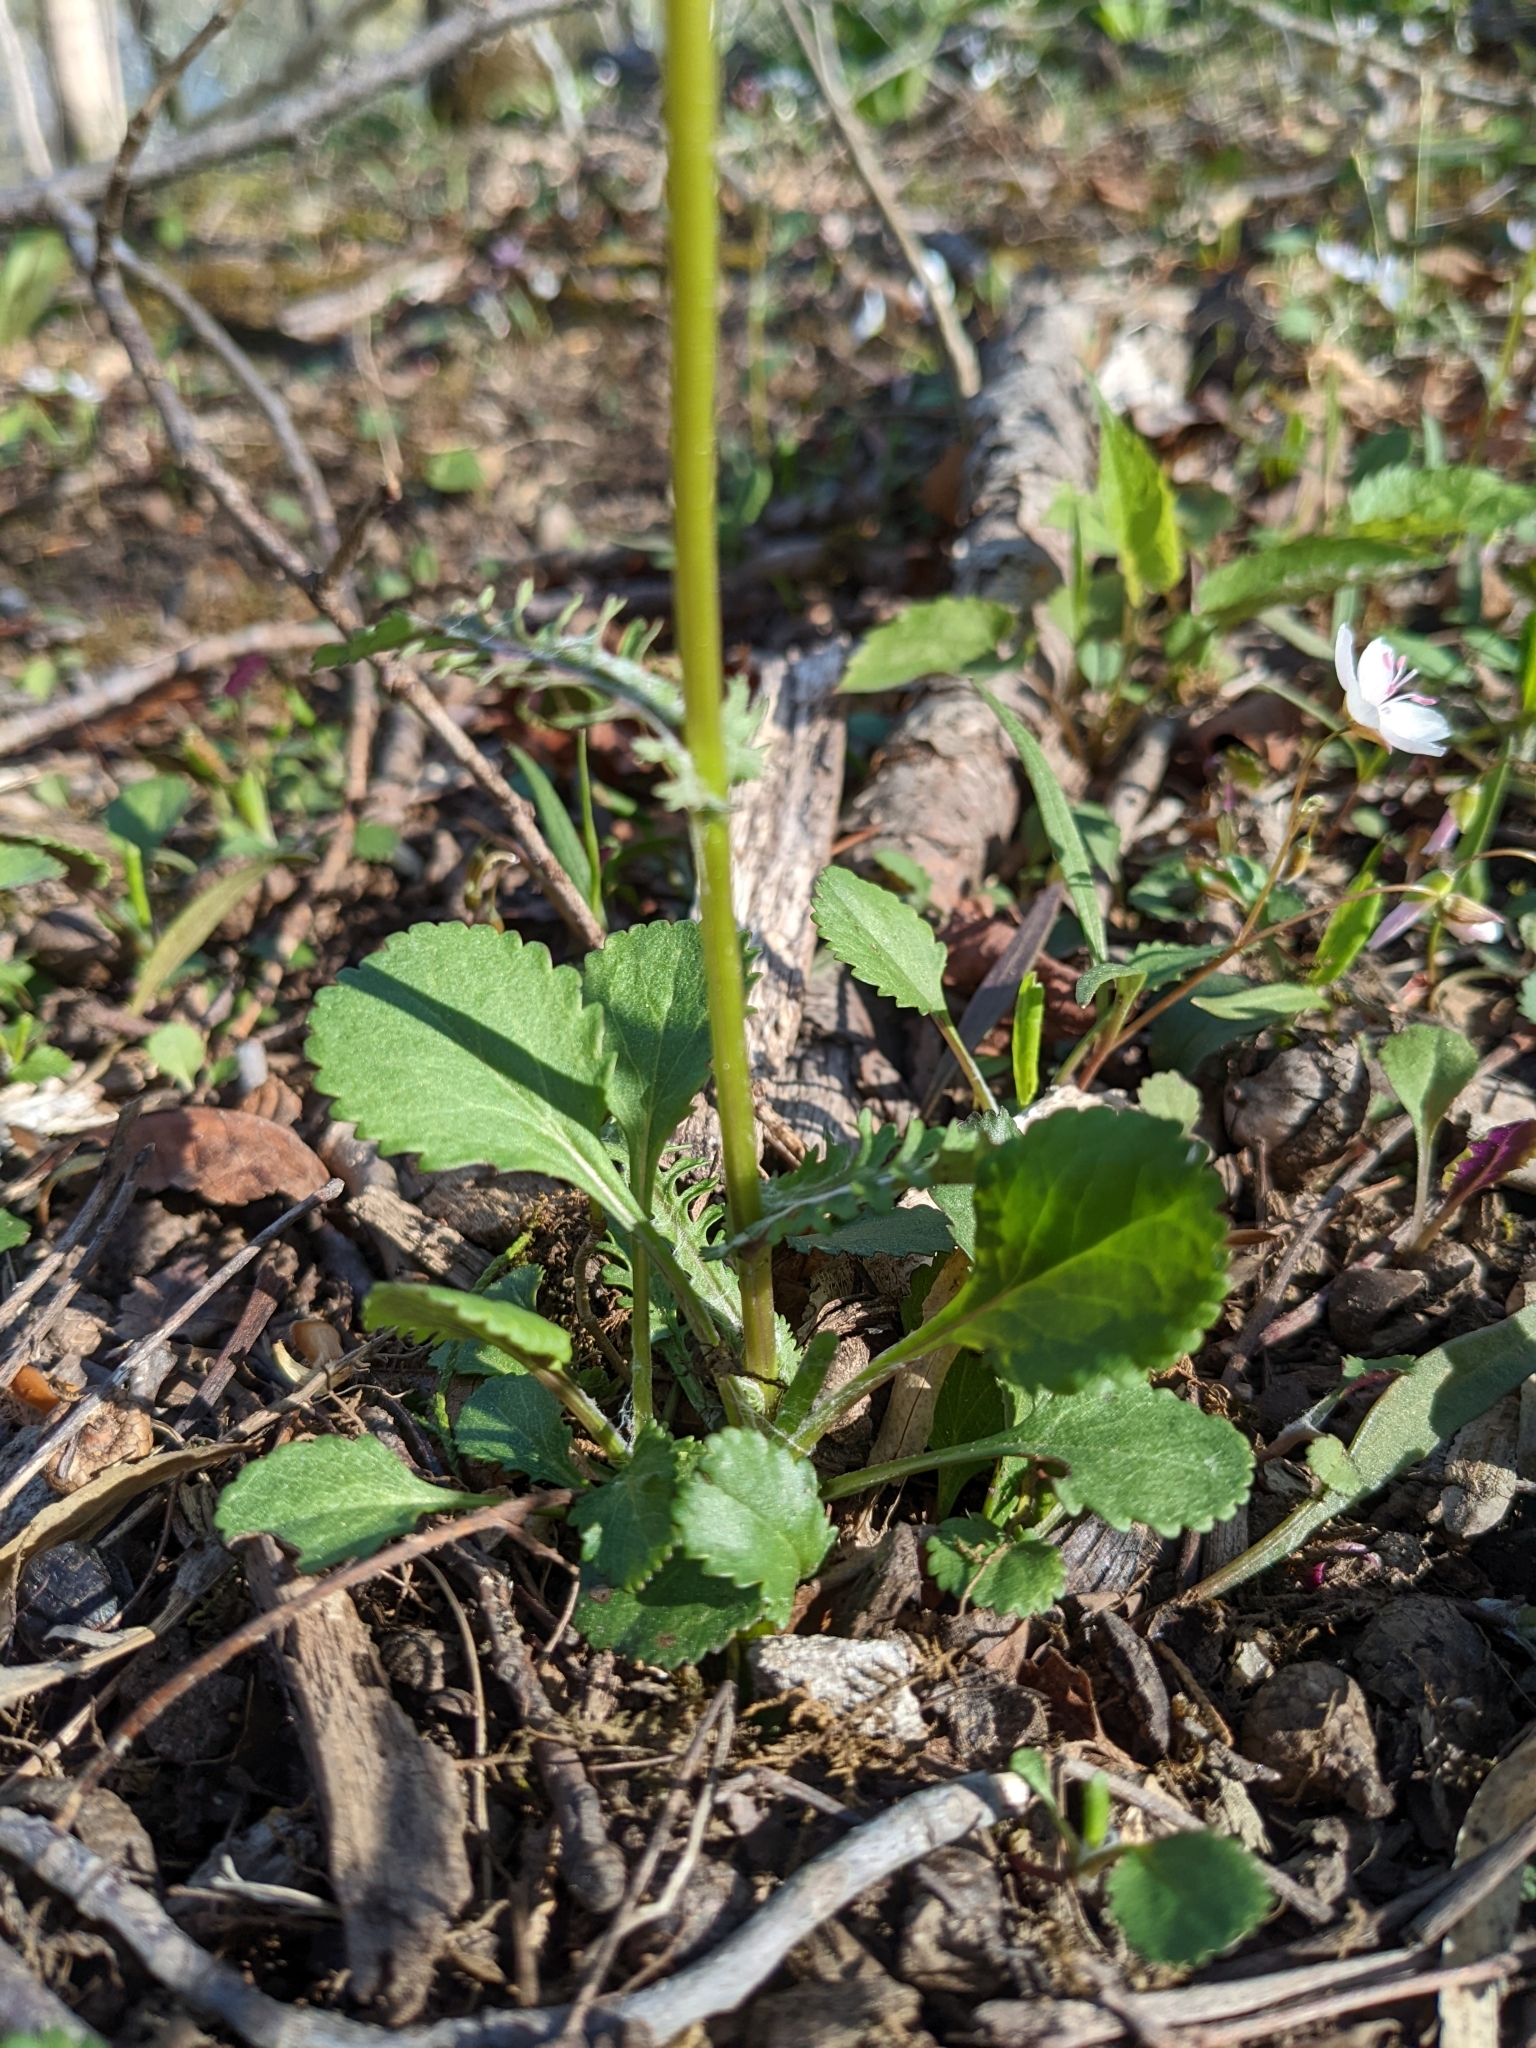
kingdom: Plantae
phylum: Tracheophyta
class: Magnoliopsida
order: Asterales
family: Asteraceae
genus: Packera
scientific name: Packera obovata
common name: Round-leaf ragwort
